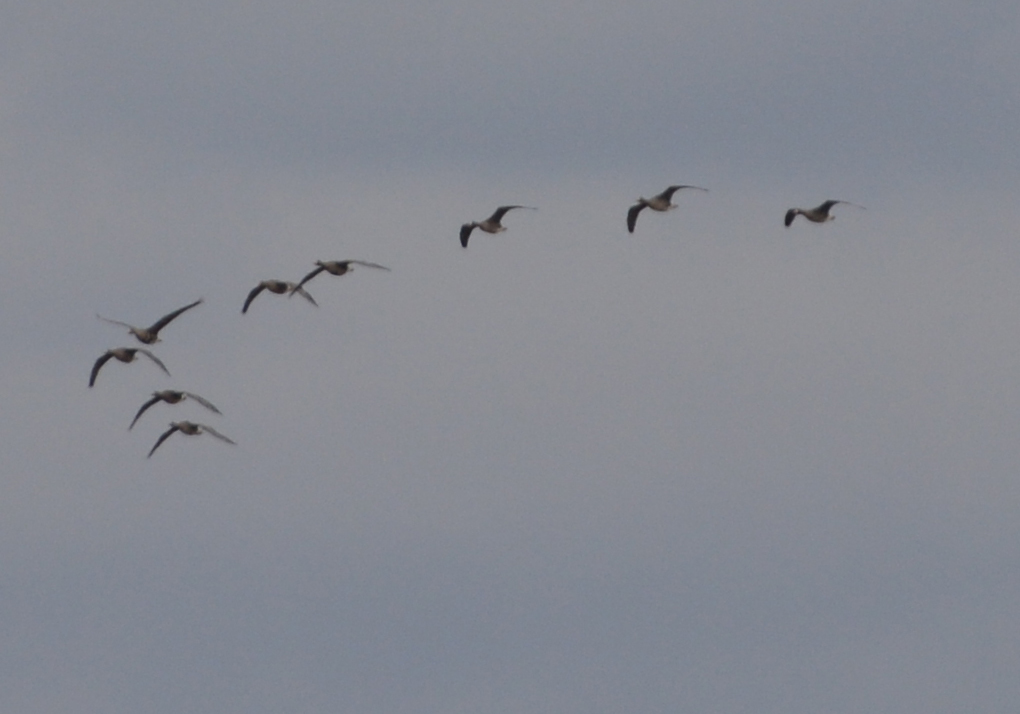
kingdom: Animalia
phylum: Chordata
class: Aves
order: Anseriformes
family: Anatidae
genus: Anser
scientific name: Anser albifrons
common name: Greater white-fronted goose
